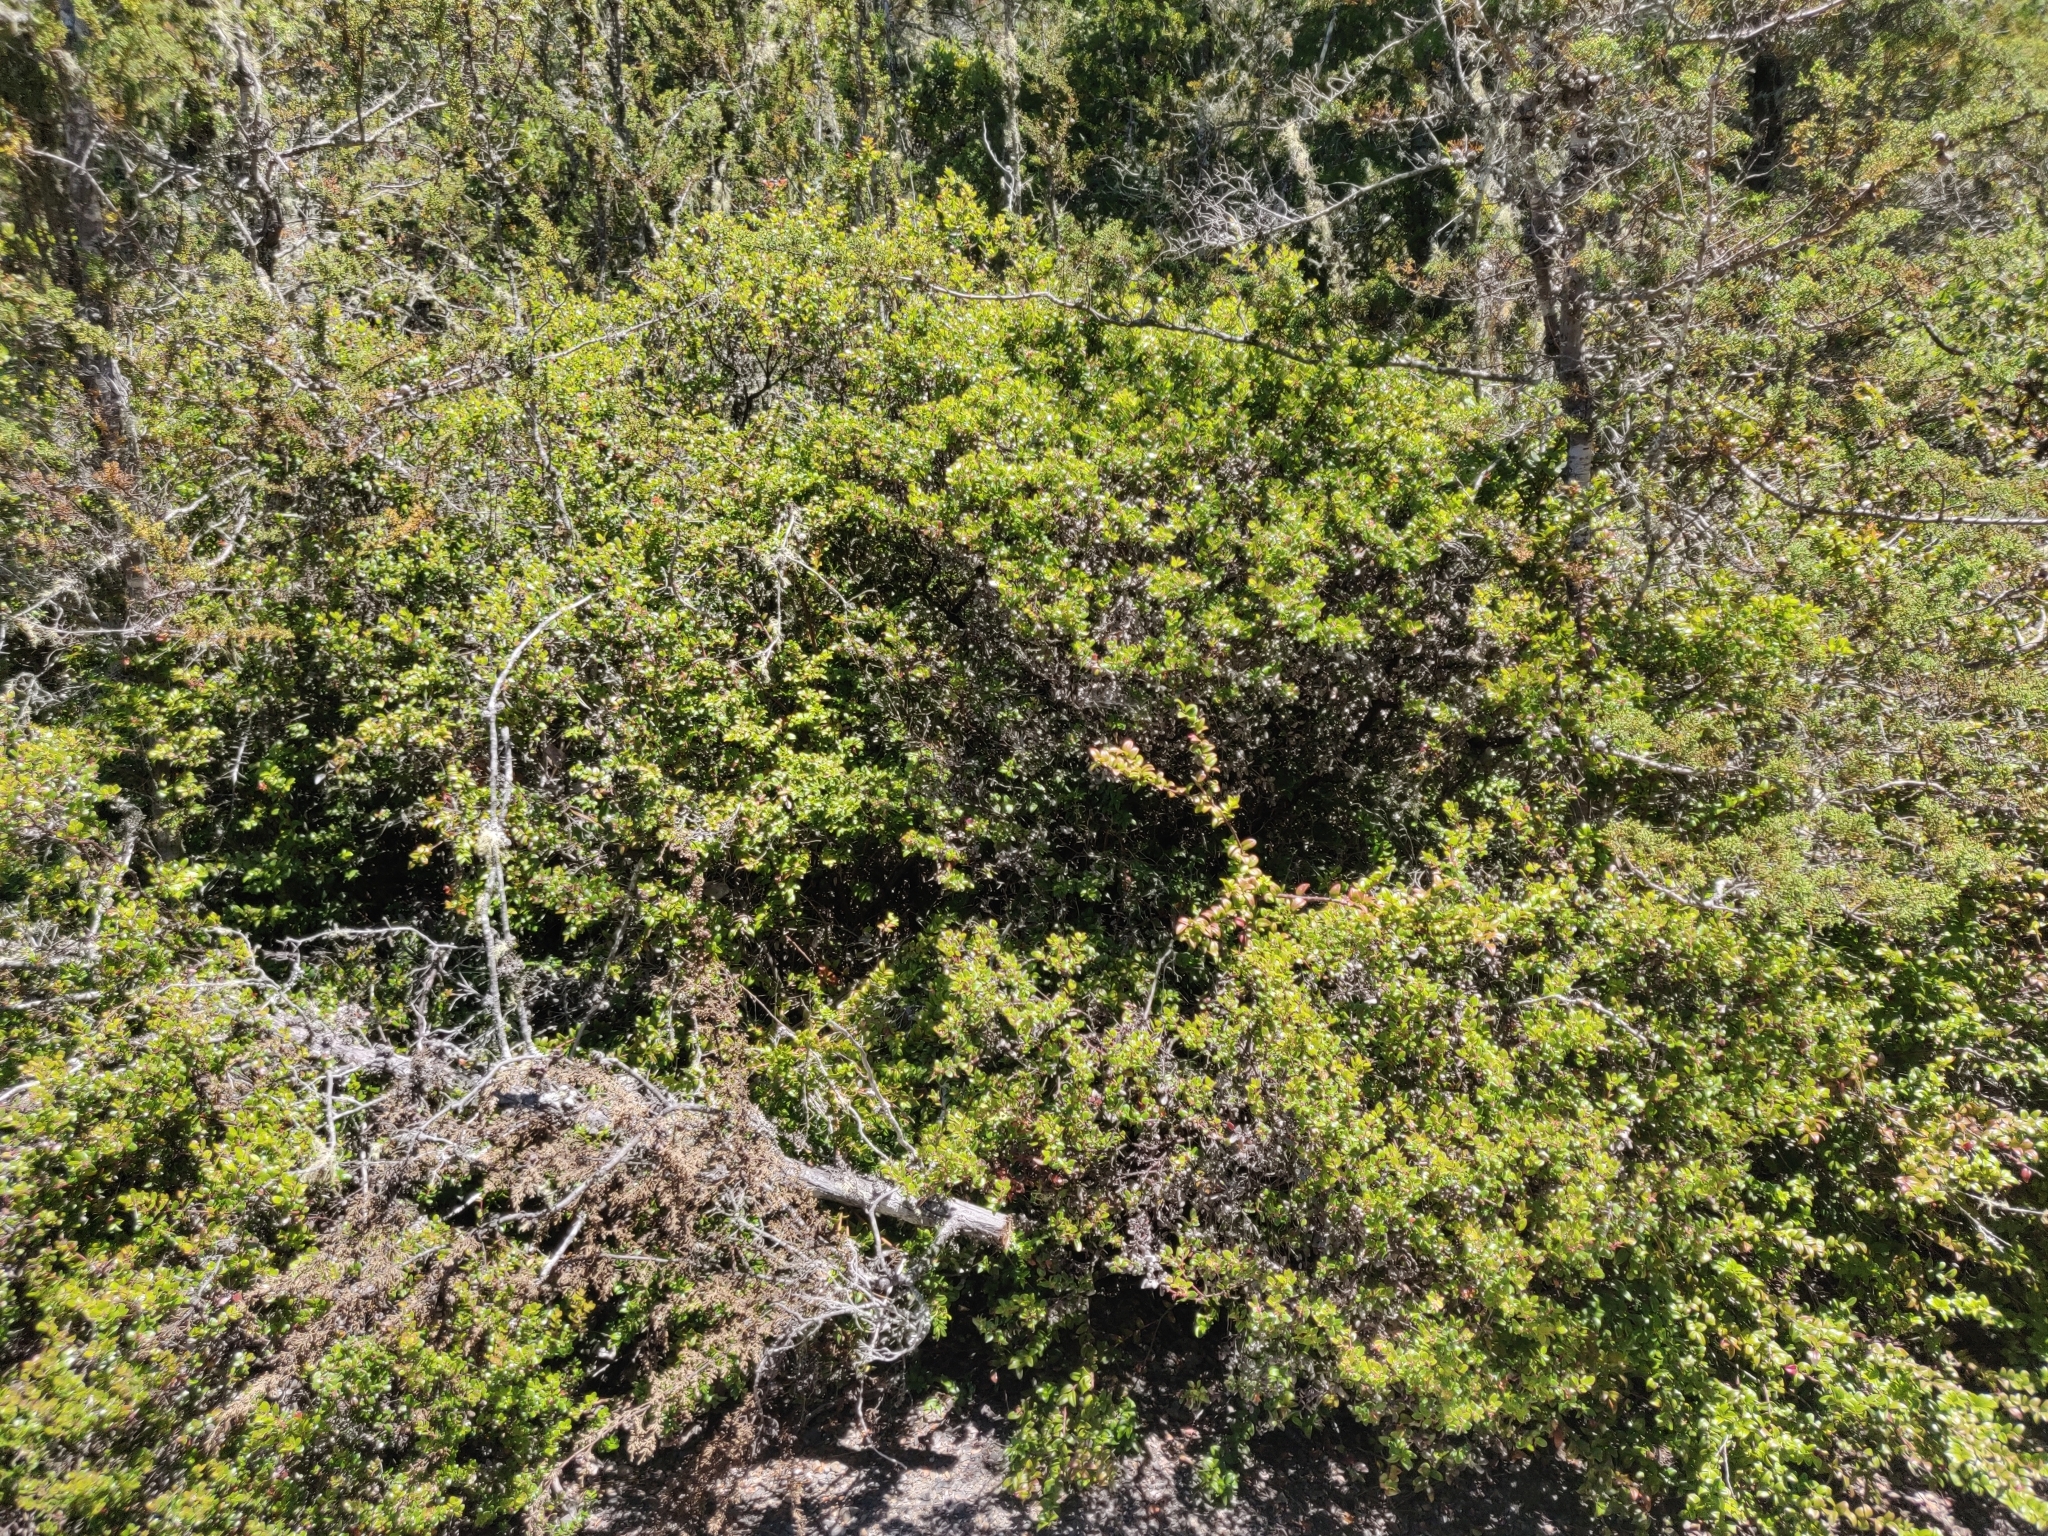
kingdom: Plantae
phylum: Tracheophyta
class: Magnoliopsida
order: Ericales
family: Ericaceae
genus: Arctostaphylos
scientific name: Arctostaphylos nummularia
